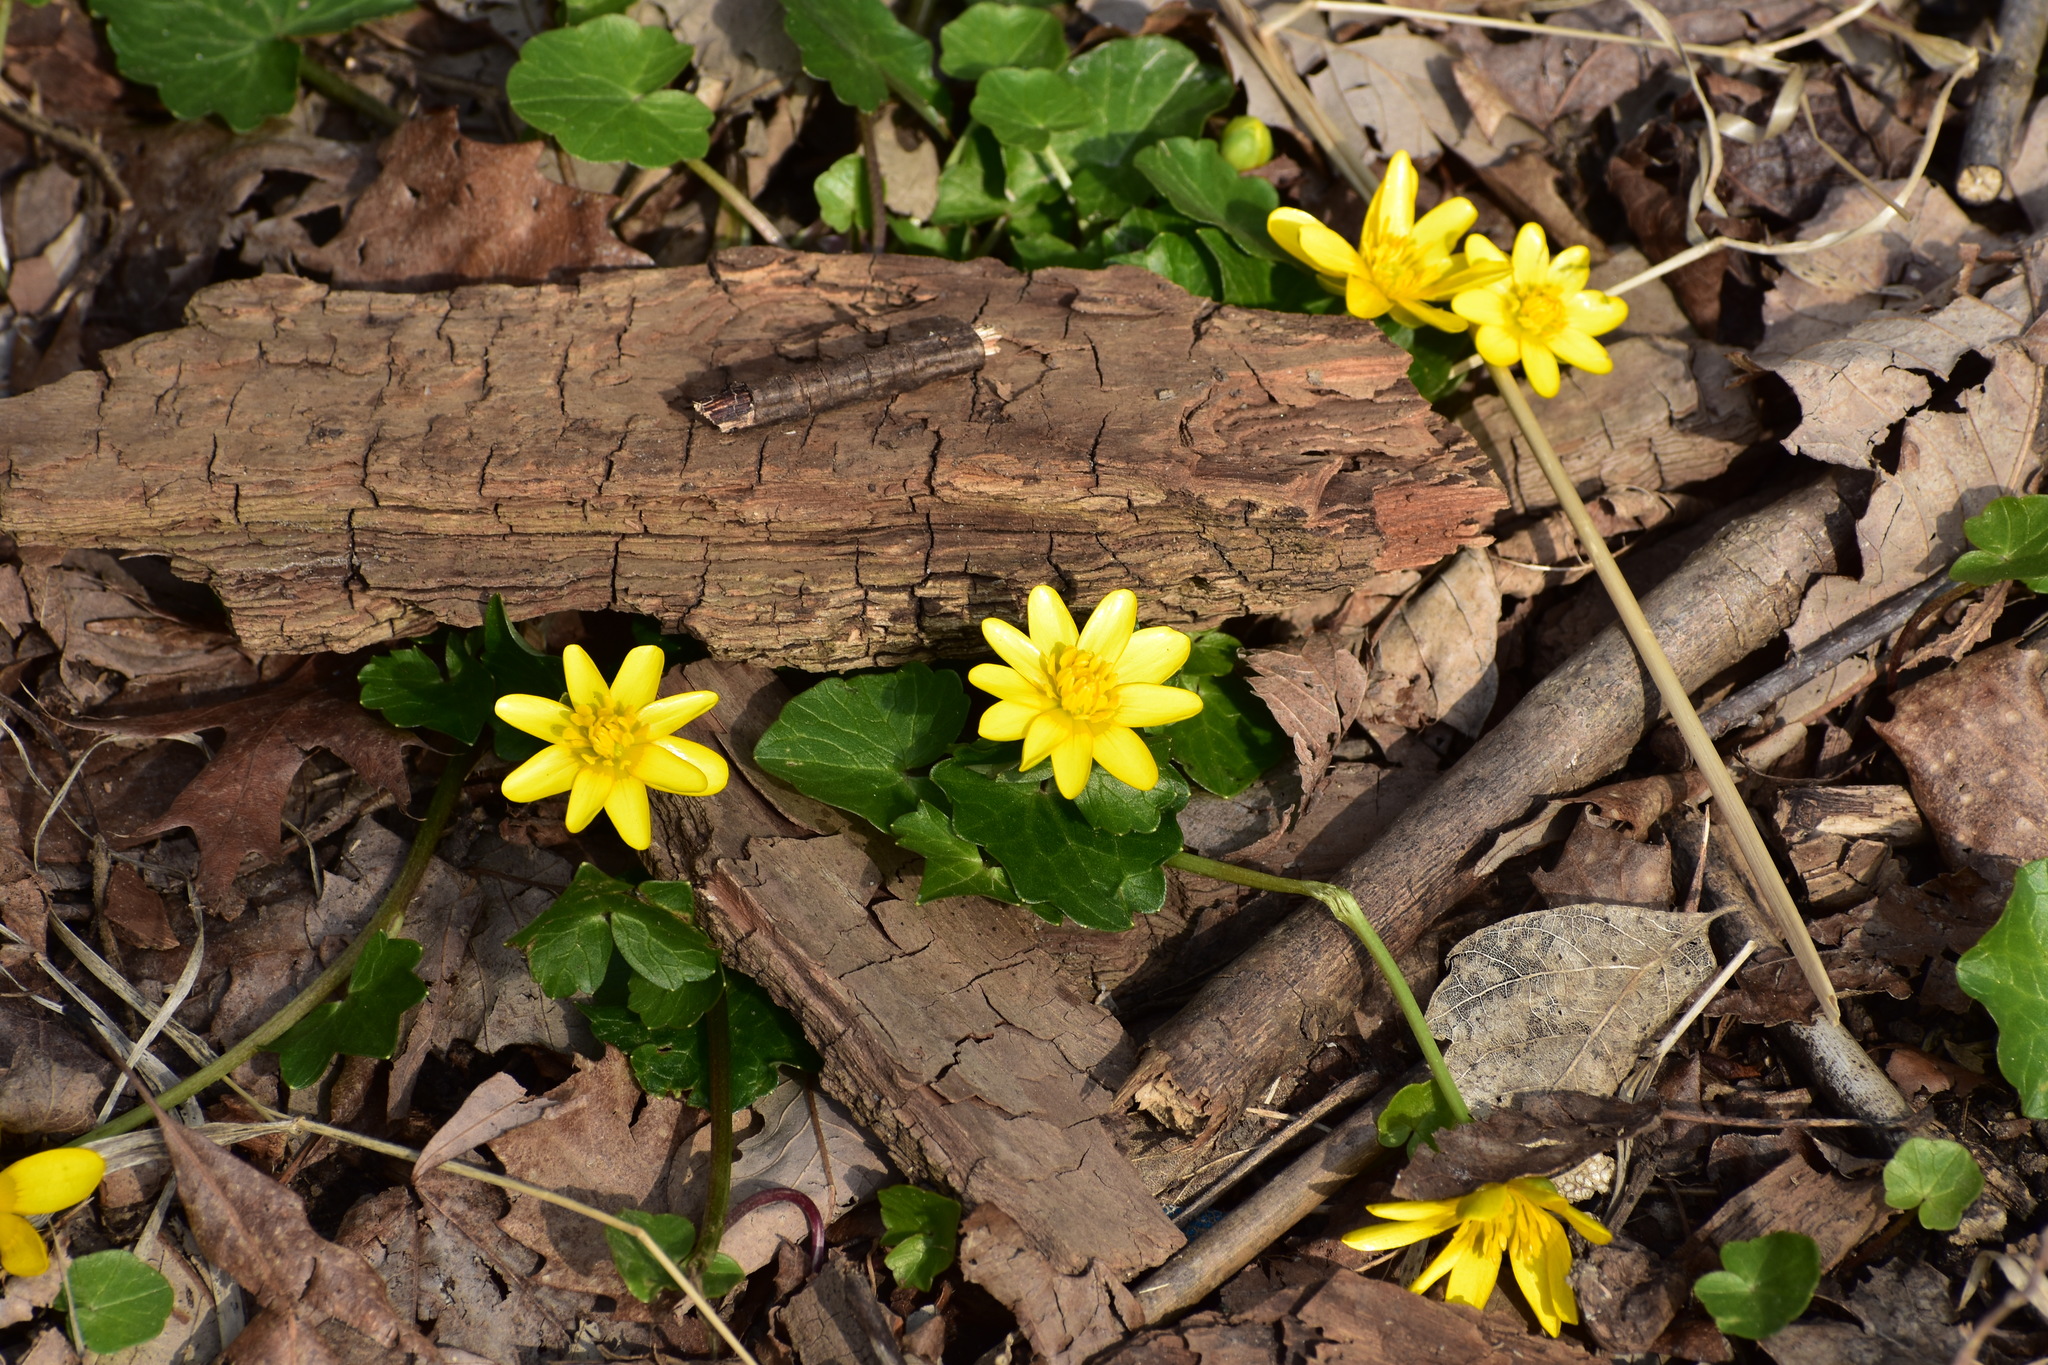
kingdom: Plantae
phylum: Tracheophyta
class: Magnoliopsida
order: Ranunculales
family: Ranunculaceae
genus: Ficaria
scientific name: Ficaria verna
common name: Lesser celandine
